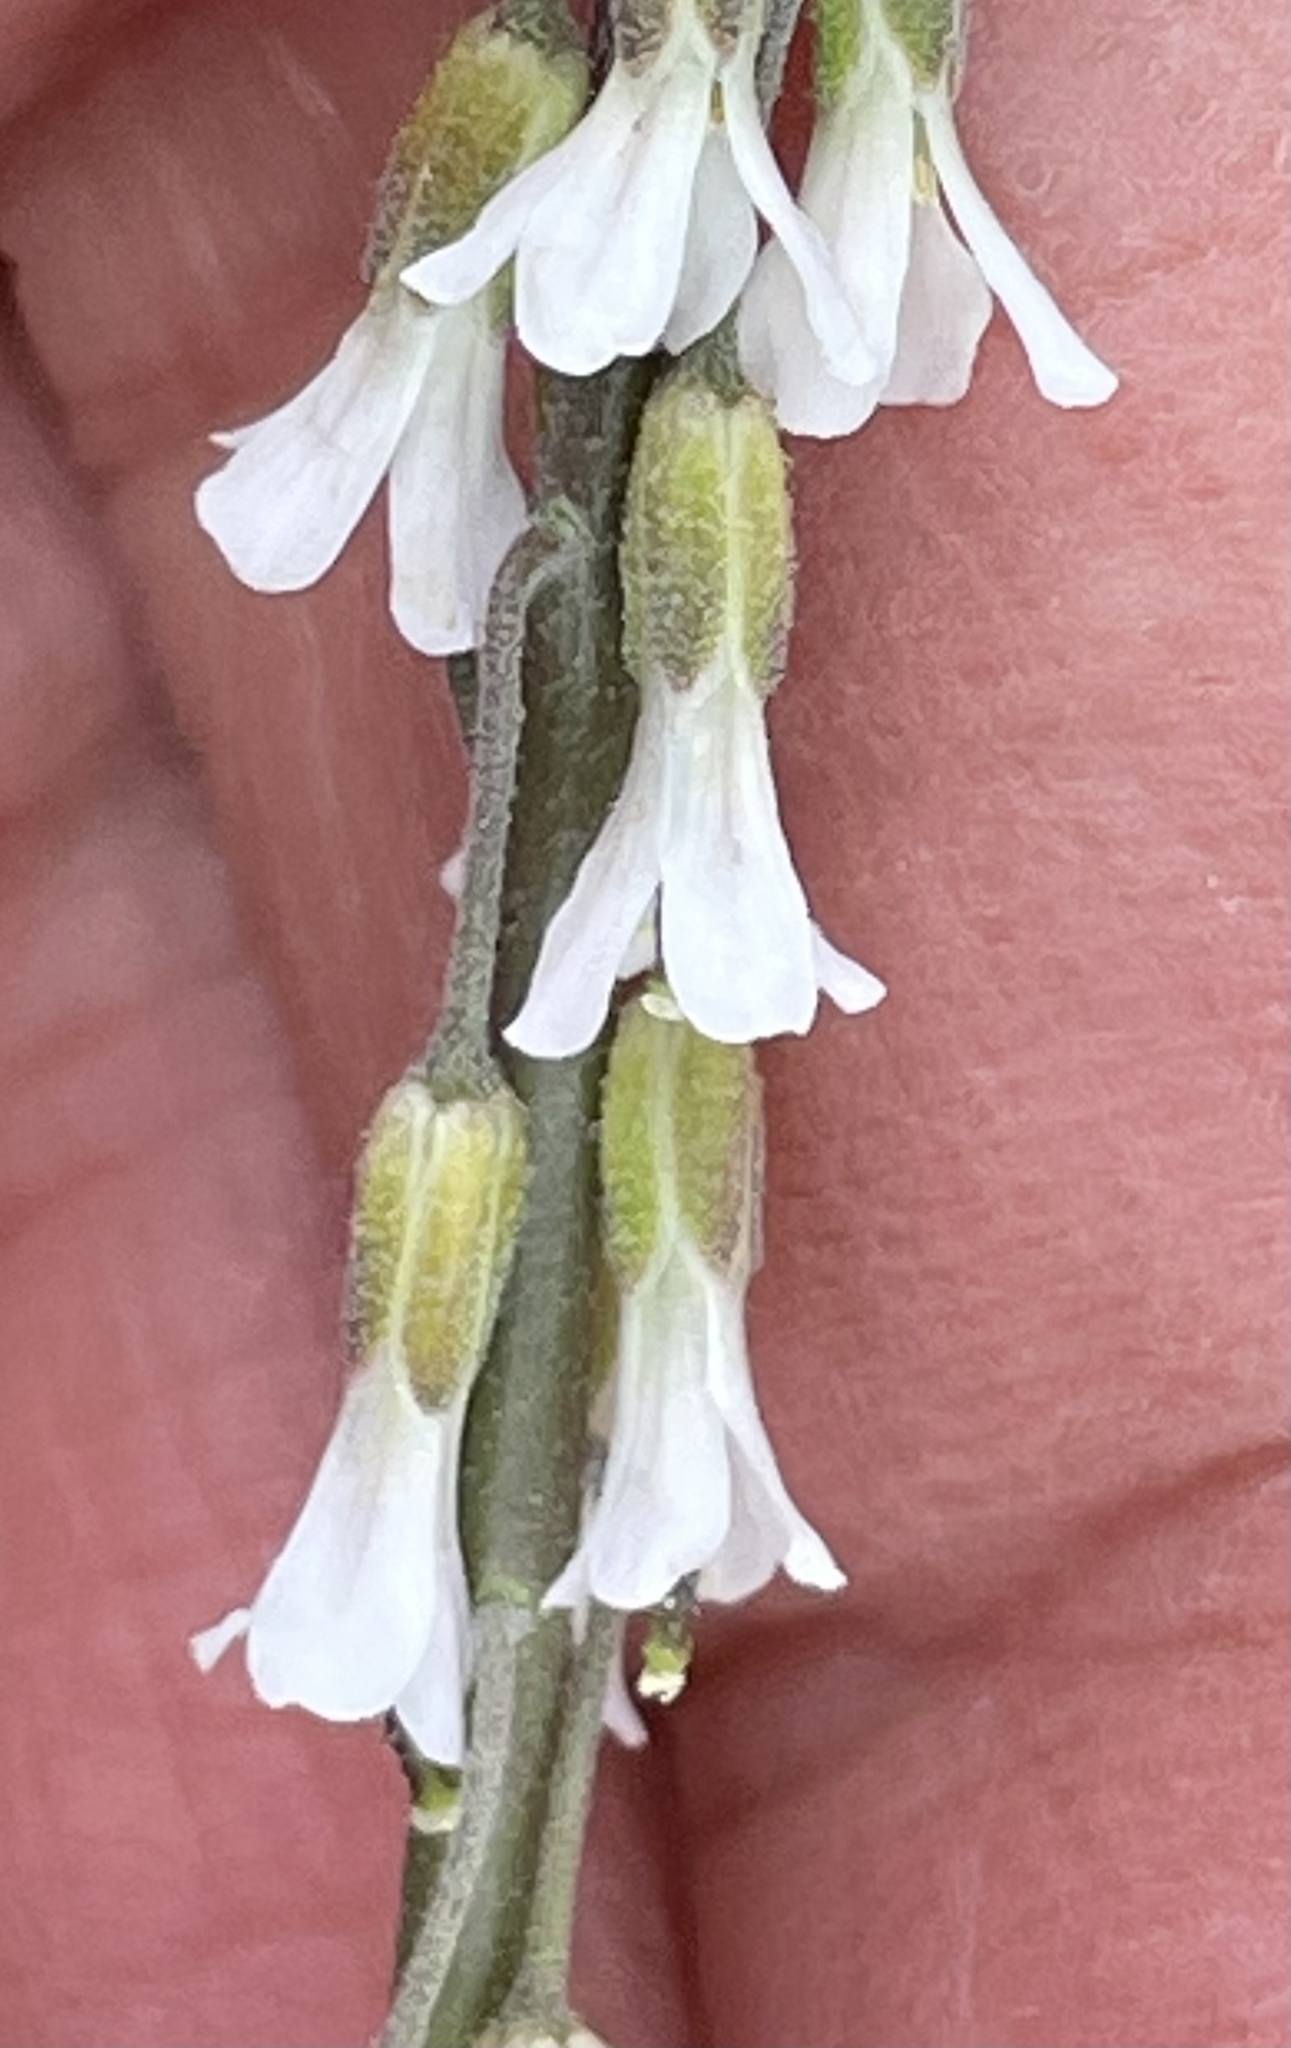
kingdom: Plantae
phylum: Tracheophyta
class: Magnoliopsida
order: Brassicales
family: Brassicaceae
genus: Boechera
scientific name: Boechera retrofracta
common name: Dangling suncress
